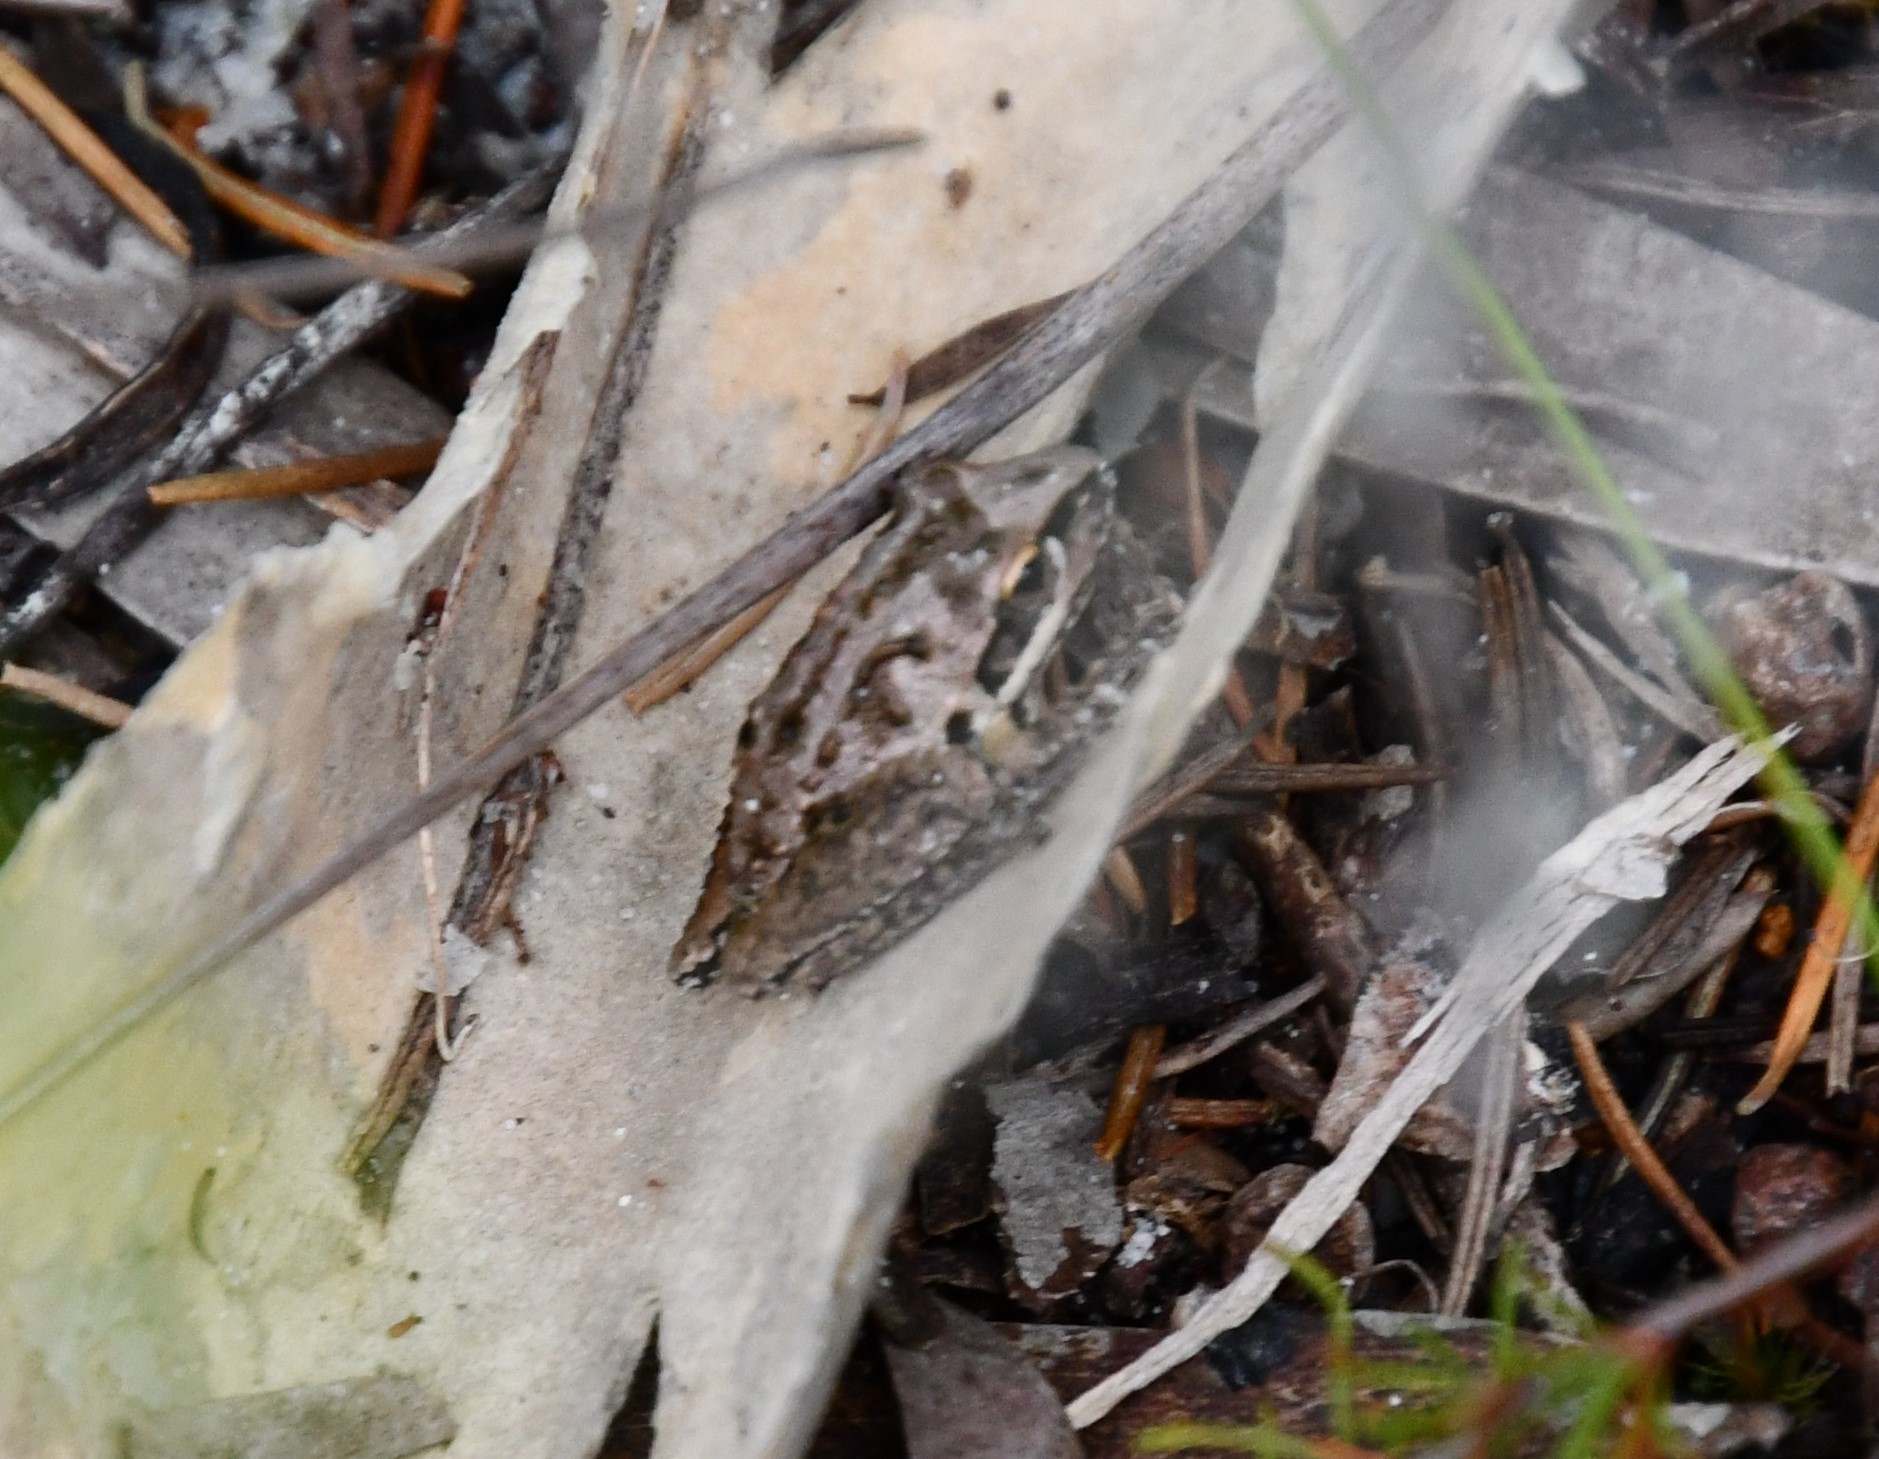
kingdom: Animalia
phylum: Chordata
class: Amphibia
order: Anura
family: Pelodryadidae
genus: Litoria
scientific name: Litoria freycineti
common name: Freycinet’s frog
